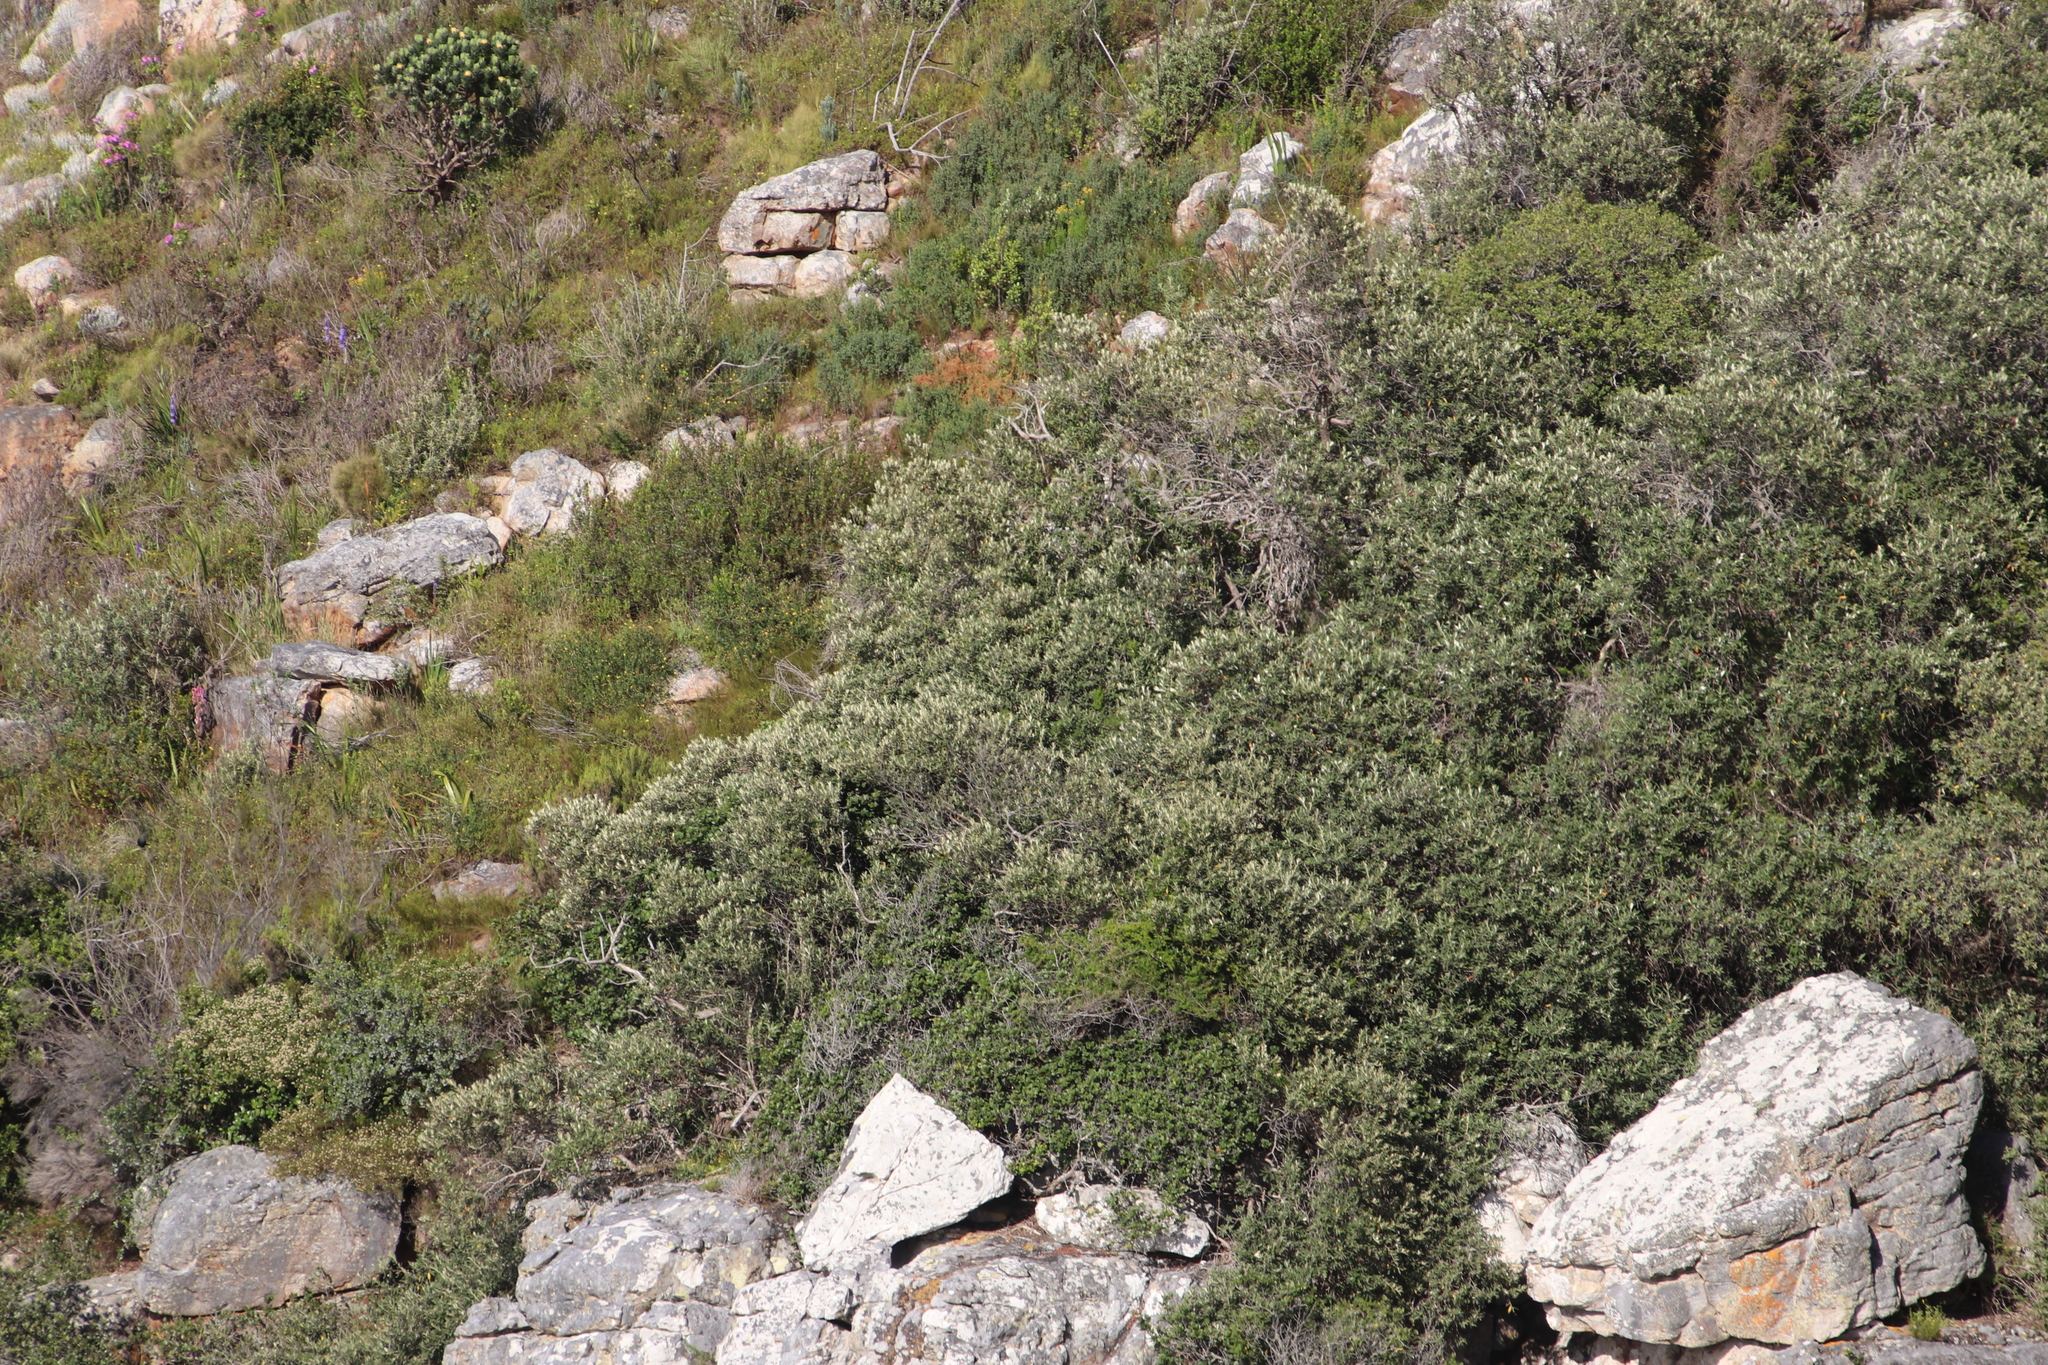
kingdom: Plantae
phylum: Tracheophyta
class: Magnoliopsida
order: Rosales
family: Rhamnaceae
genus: Phylica
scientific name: Phylica buxifolia
